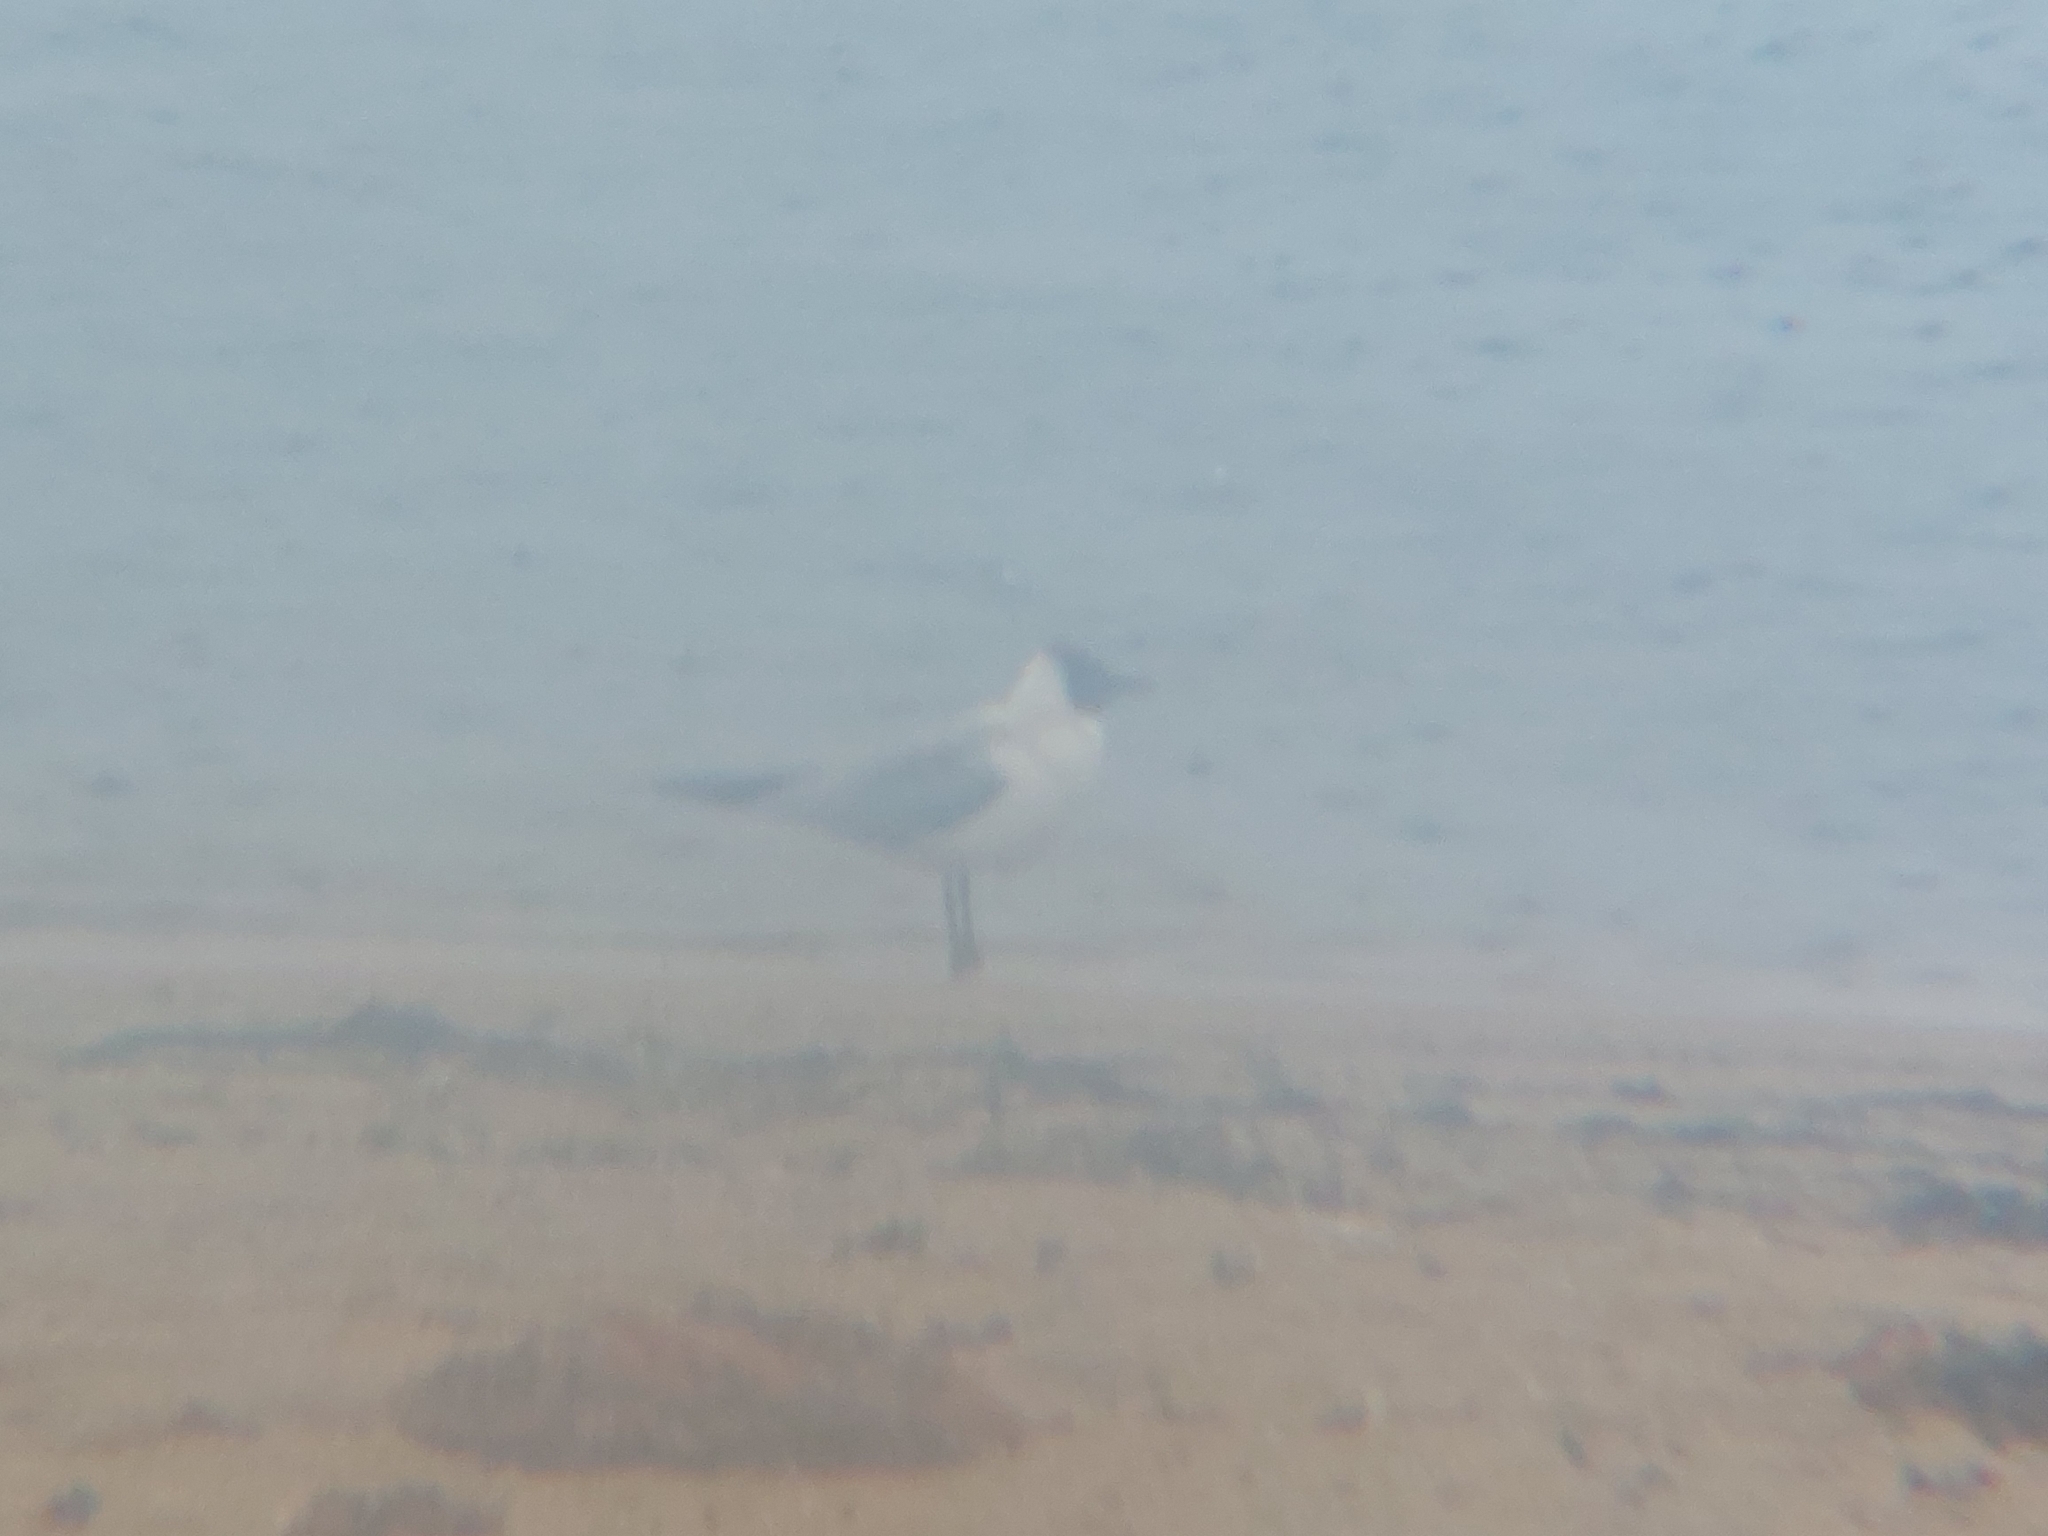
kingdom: Animalia
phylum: Chordata
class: Aves
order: Charadriiformes
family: Laridae
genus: Chroicocephalus
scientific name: Chroicocephalus ridibundus
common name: Black-headed gull
